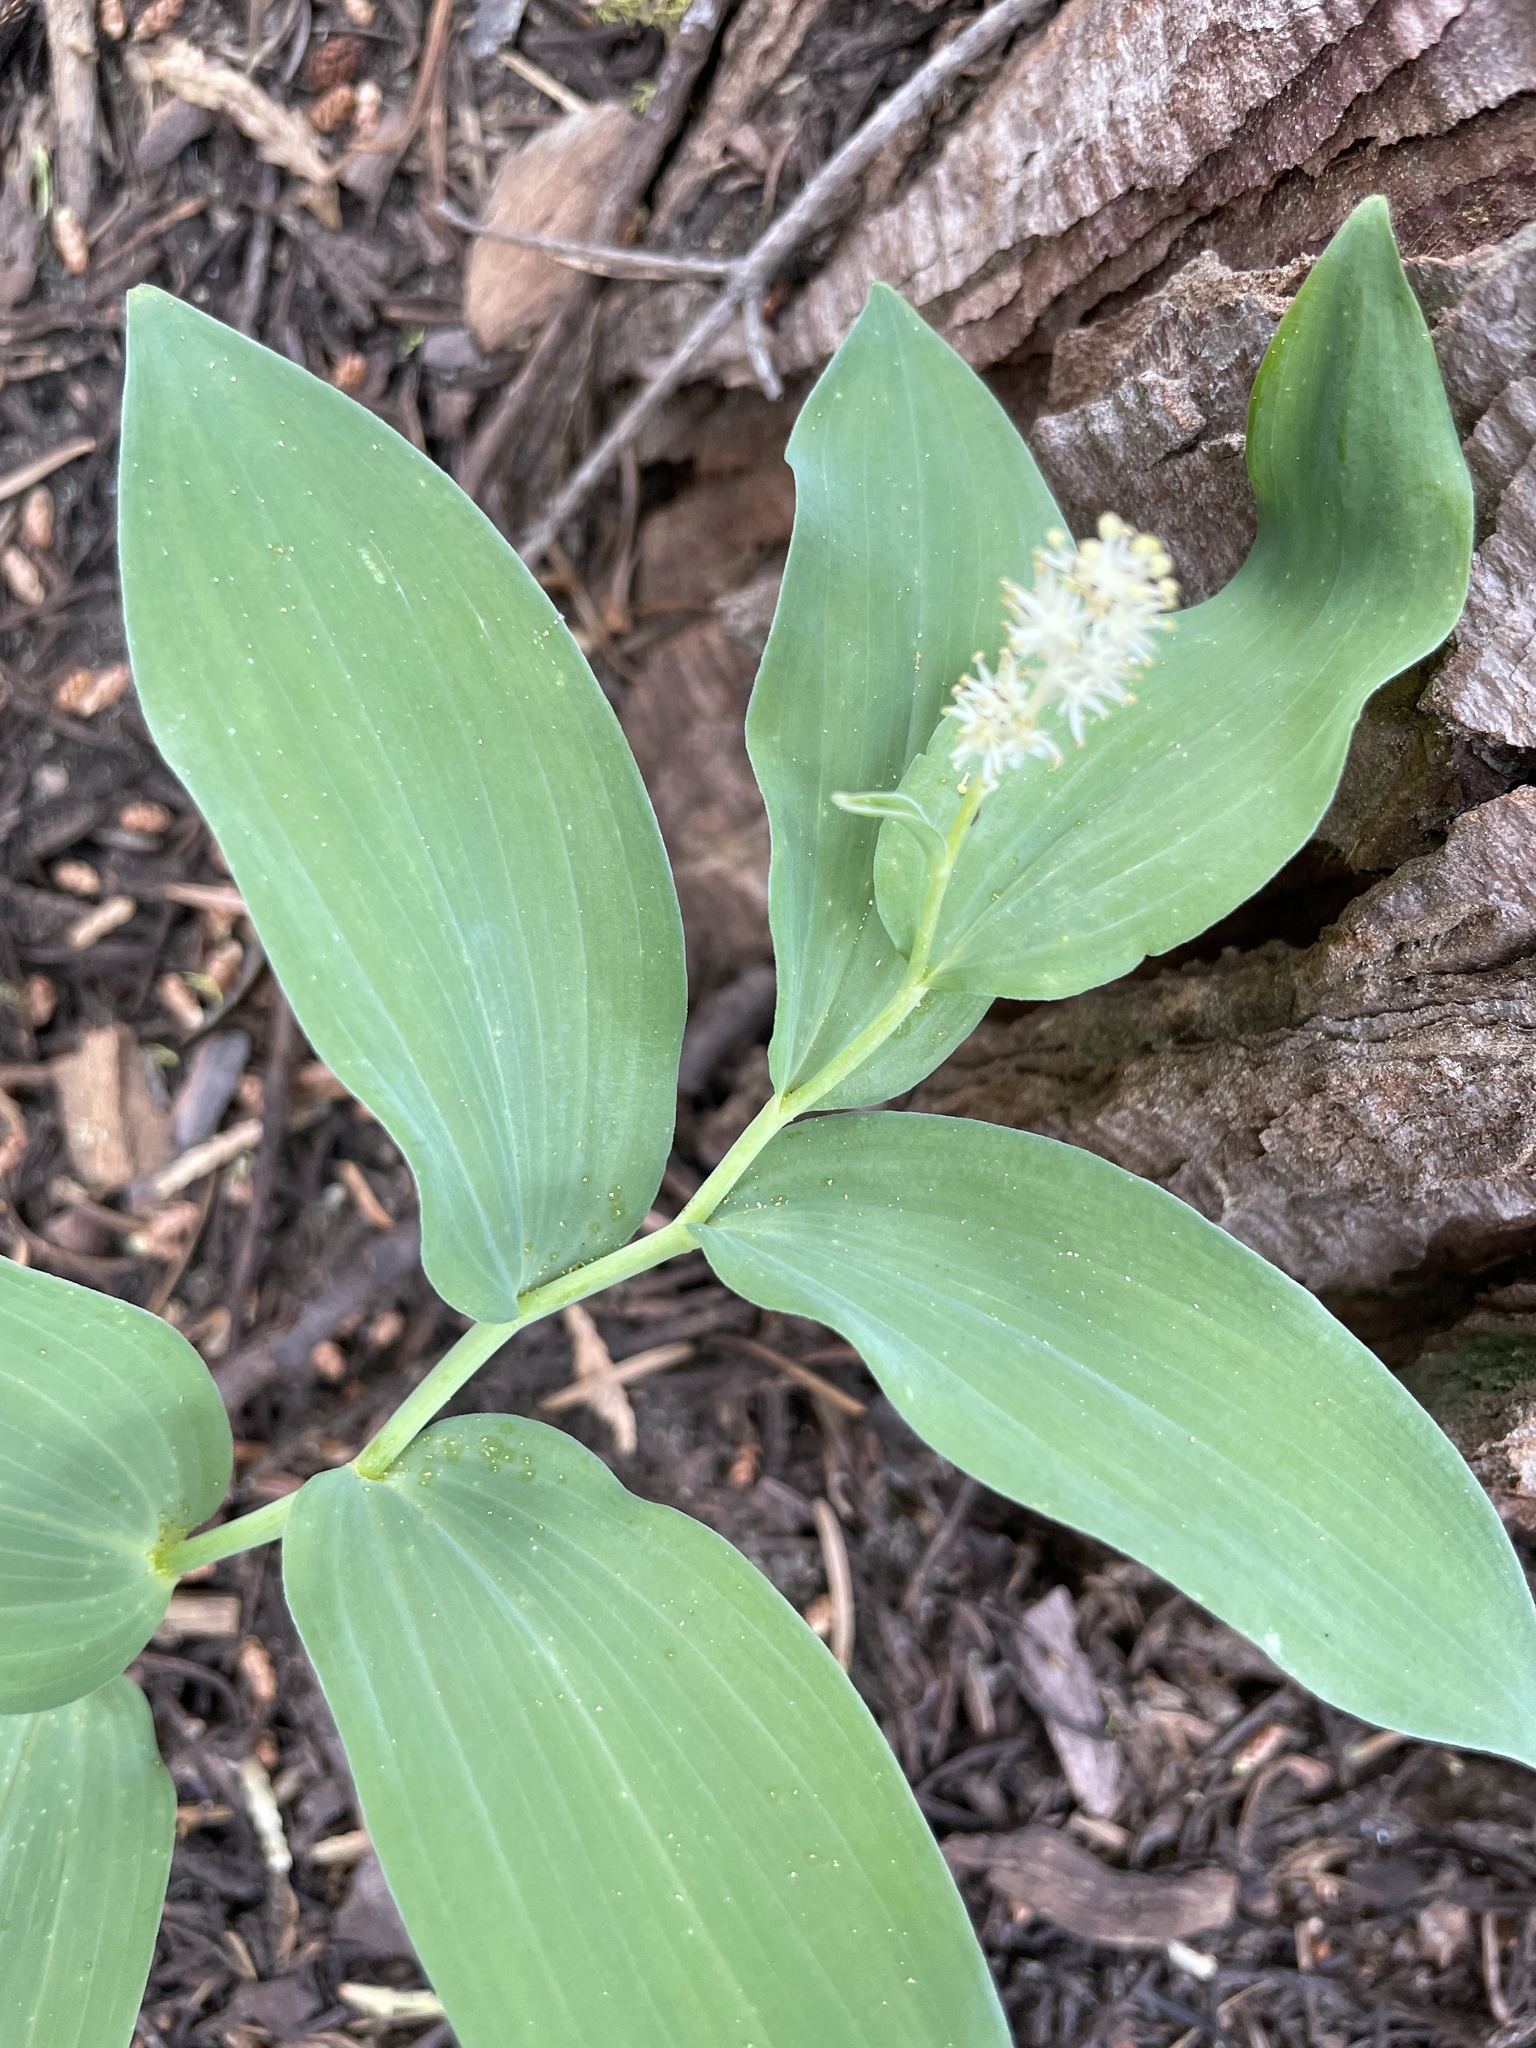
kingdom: Plantae
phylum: Tracheophyta
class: Liliopsida
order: Asparagales
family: Asparagaceae
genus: Maianthemum
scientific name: Maianthemum racemosum
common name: False spikenard
